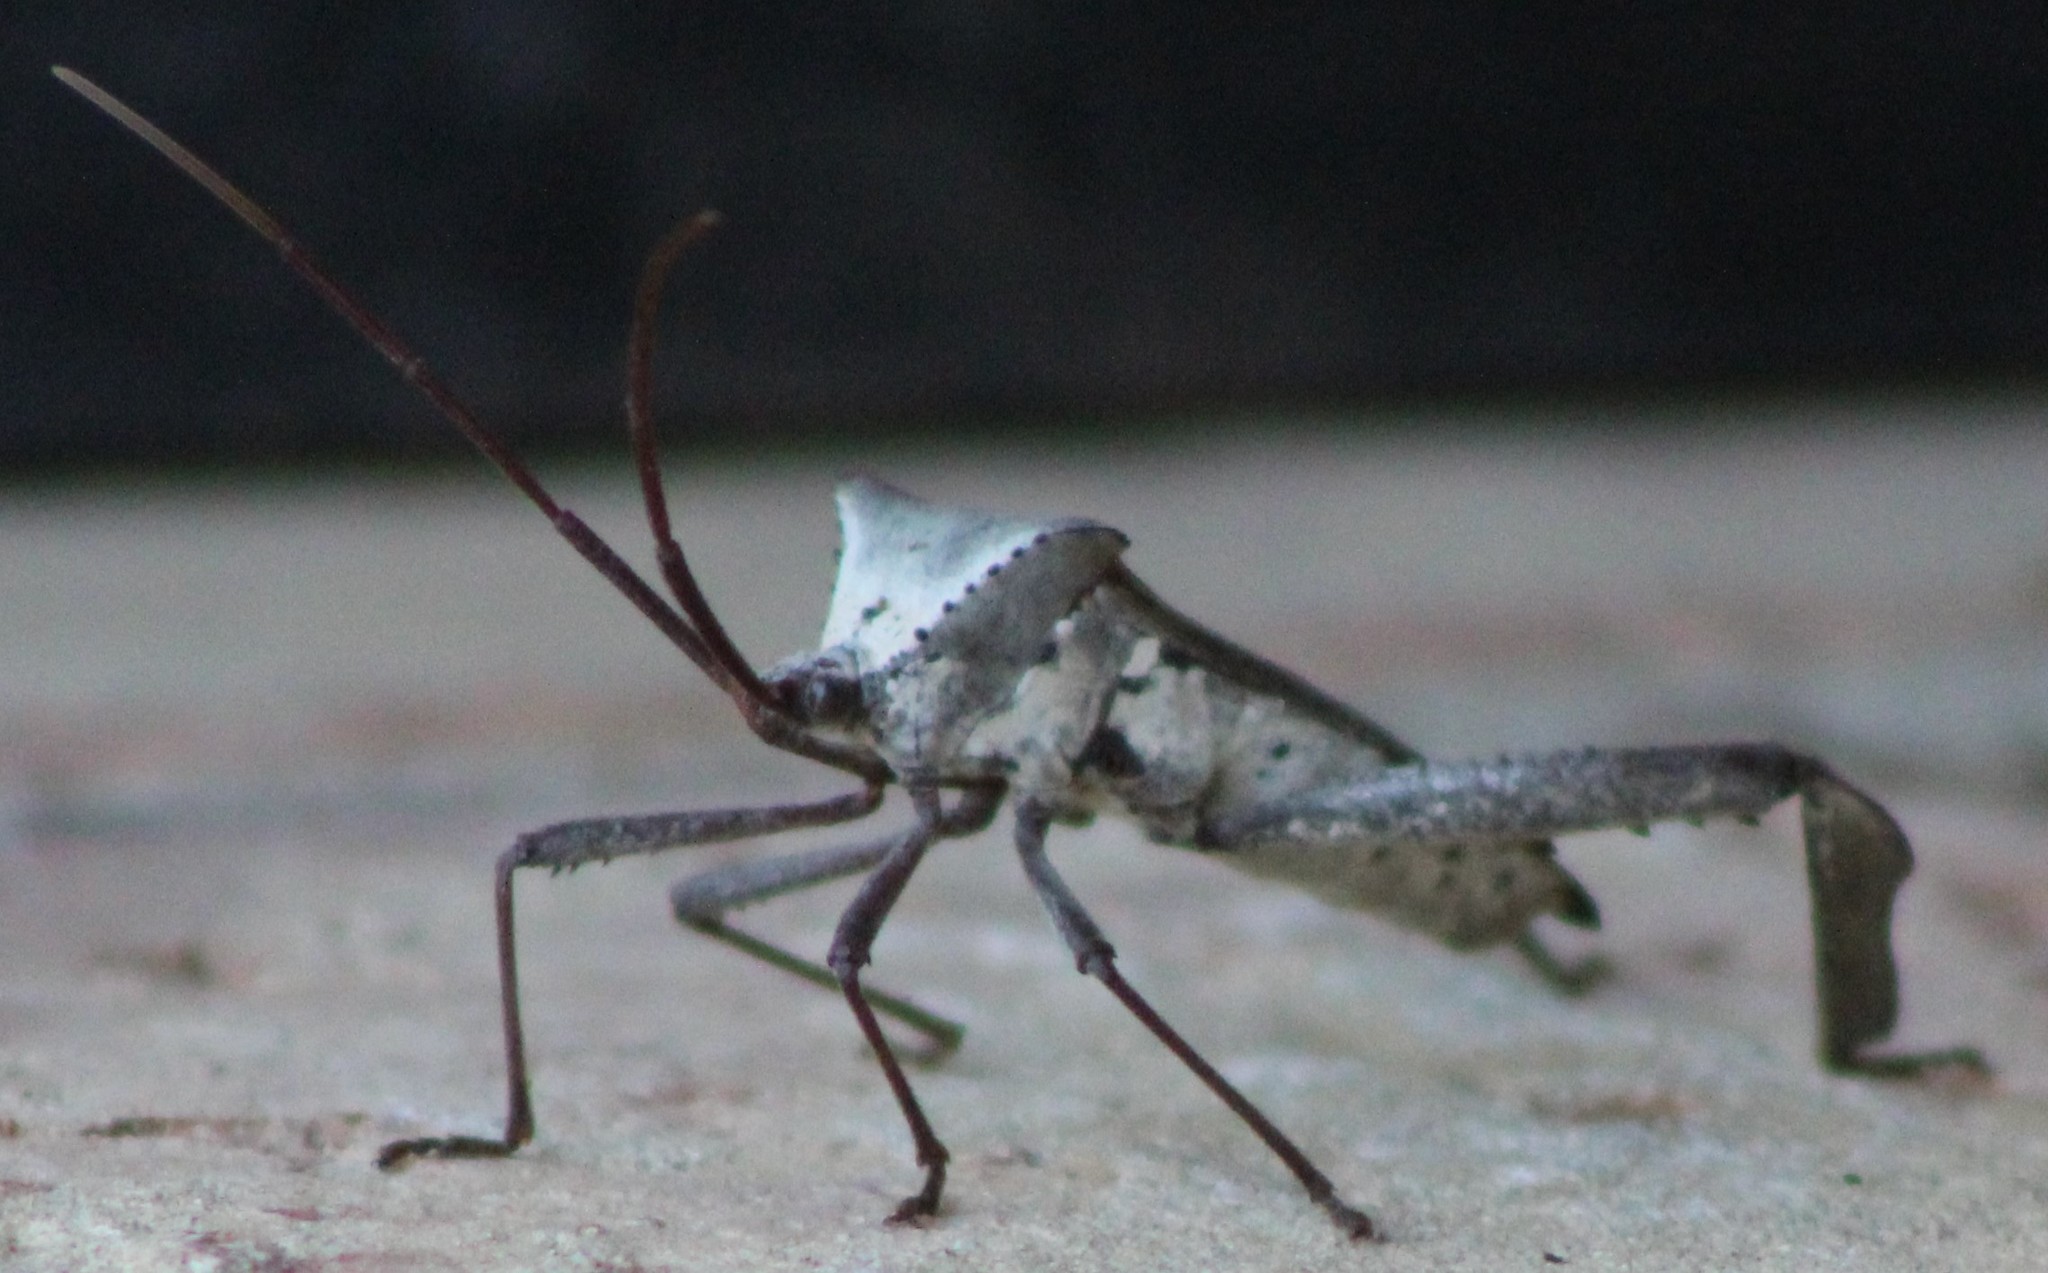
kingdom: Animalia
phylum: Arthropoda
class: Insecta
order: Hemiptera
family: Coreidae
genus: Acanthocephala
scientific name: Acanthocephala declivis
